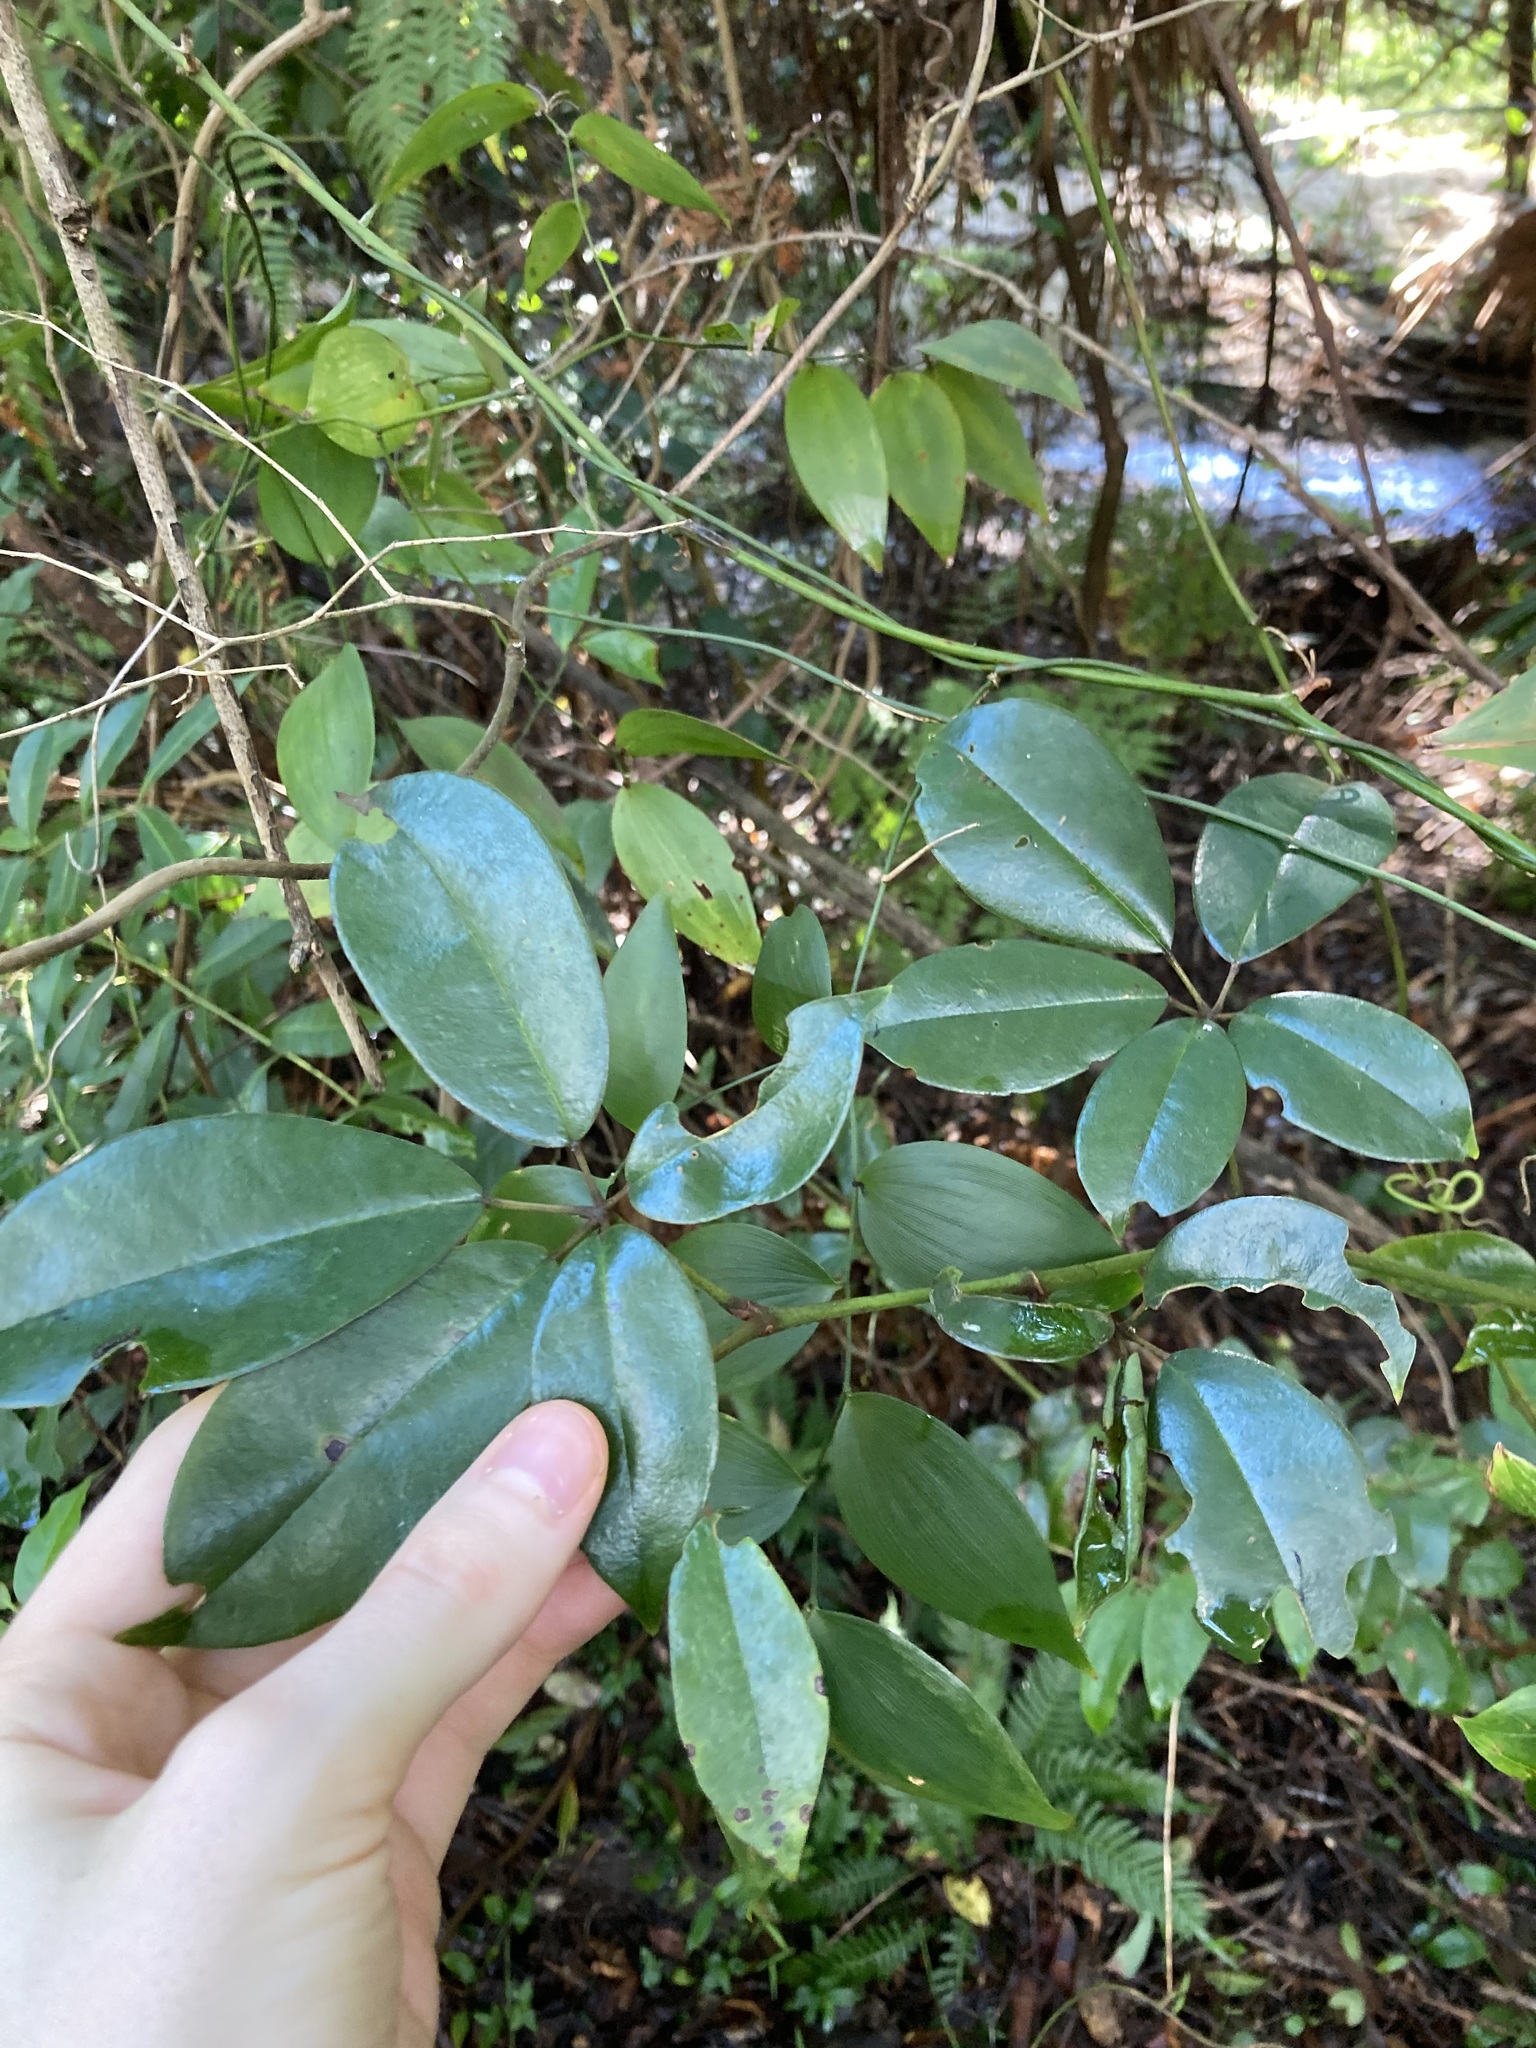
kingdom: Plantae
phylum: Tracheophyta
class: Magnoliopsida
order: Vitales
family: Vitaceae
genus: Nothocissus
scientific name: Nothocissus hypoglauca
